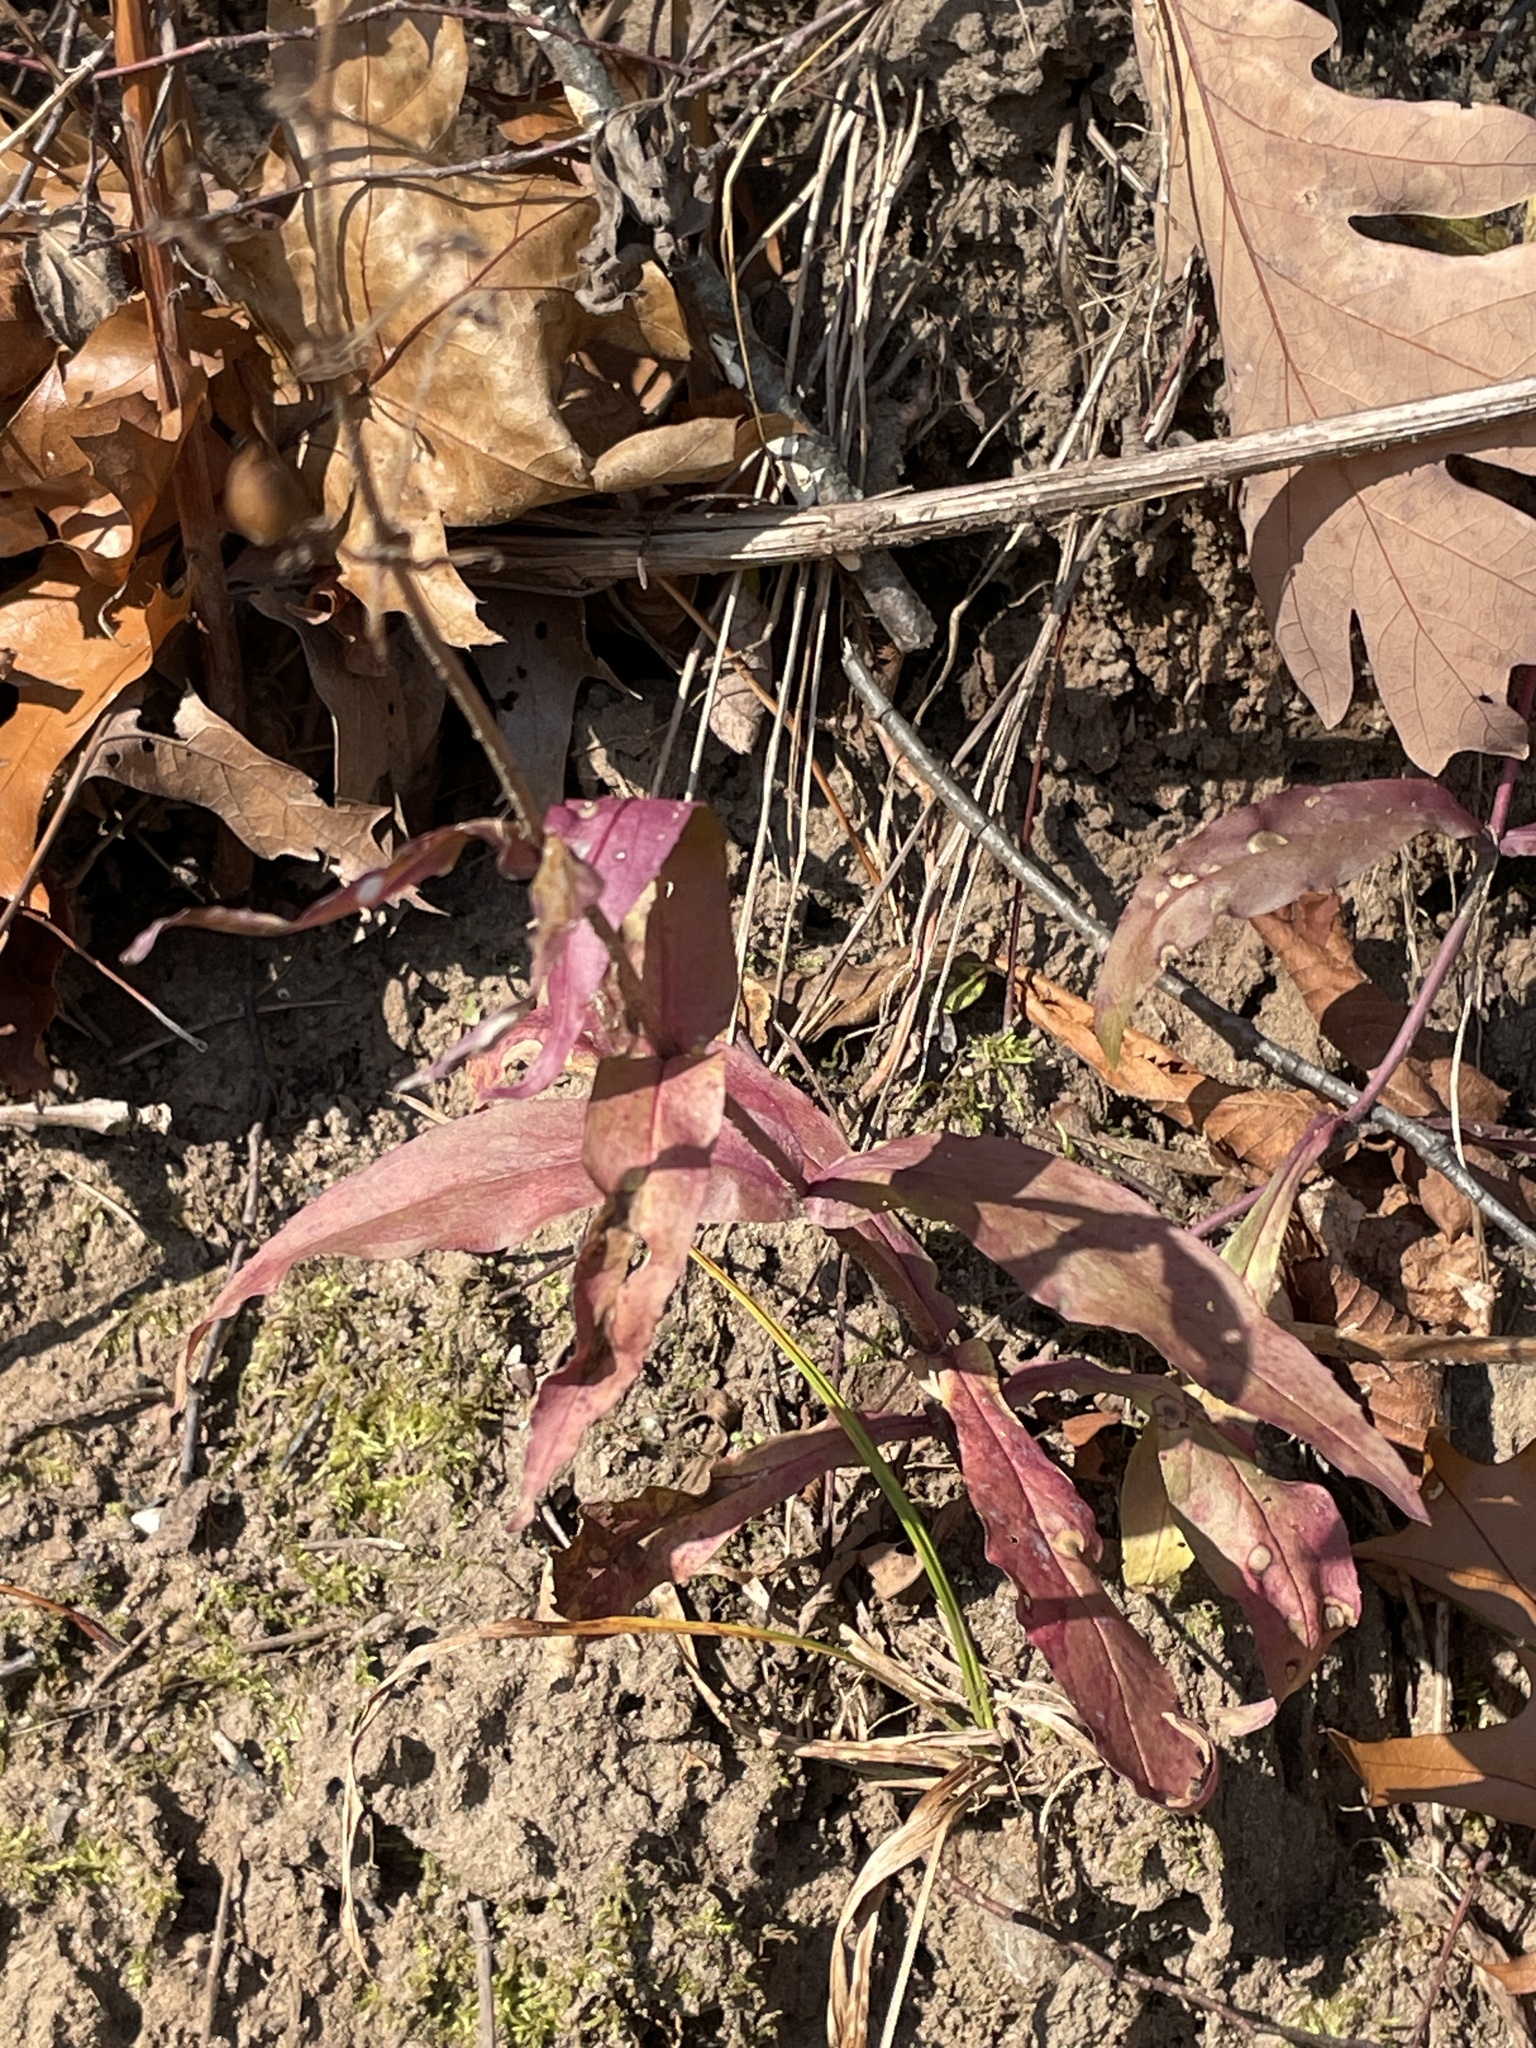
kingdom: Plantae
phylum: Tracheophyta
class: Magnoliopsida
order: Lamiales
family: Plantaginaceae
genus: Penstemon
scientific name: Penstemon hirsutus
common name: Hairy beardtongue
